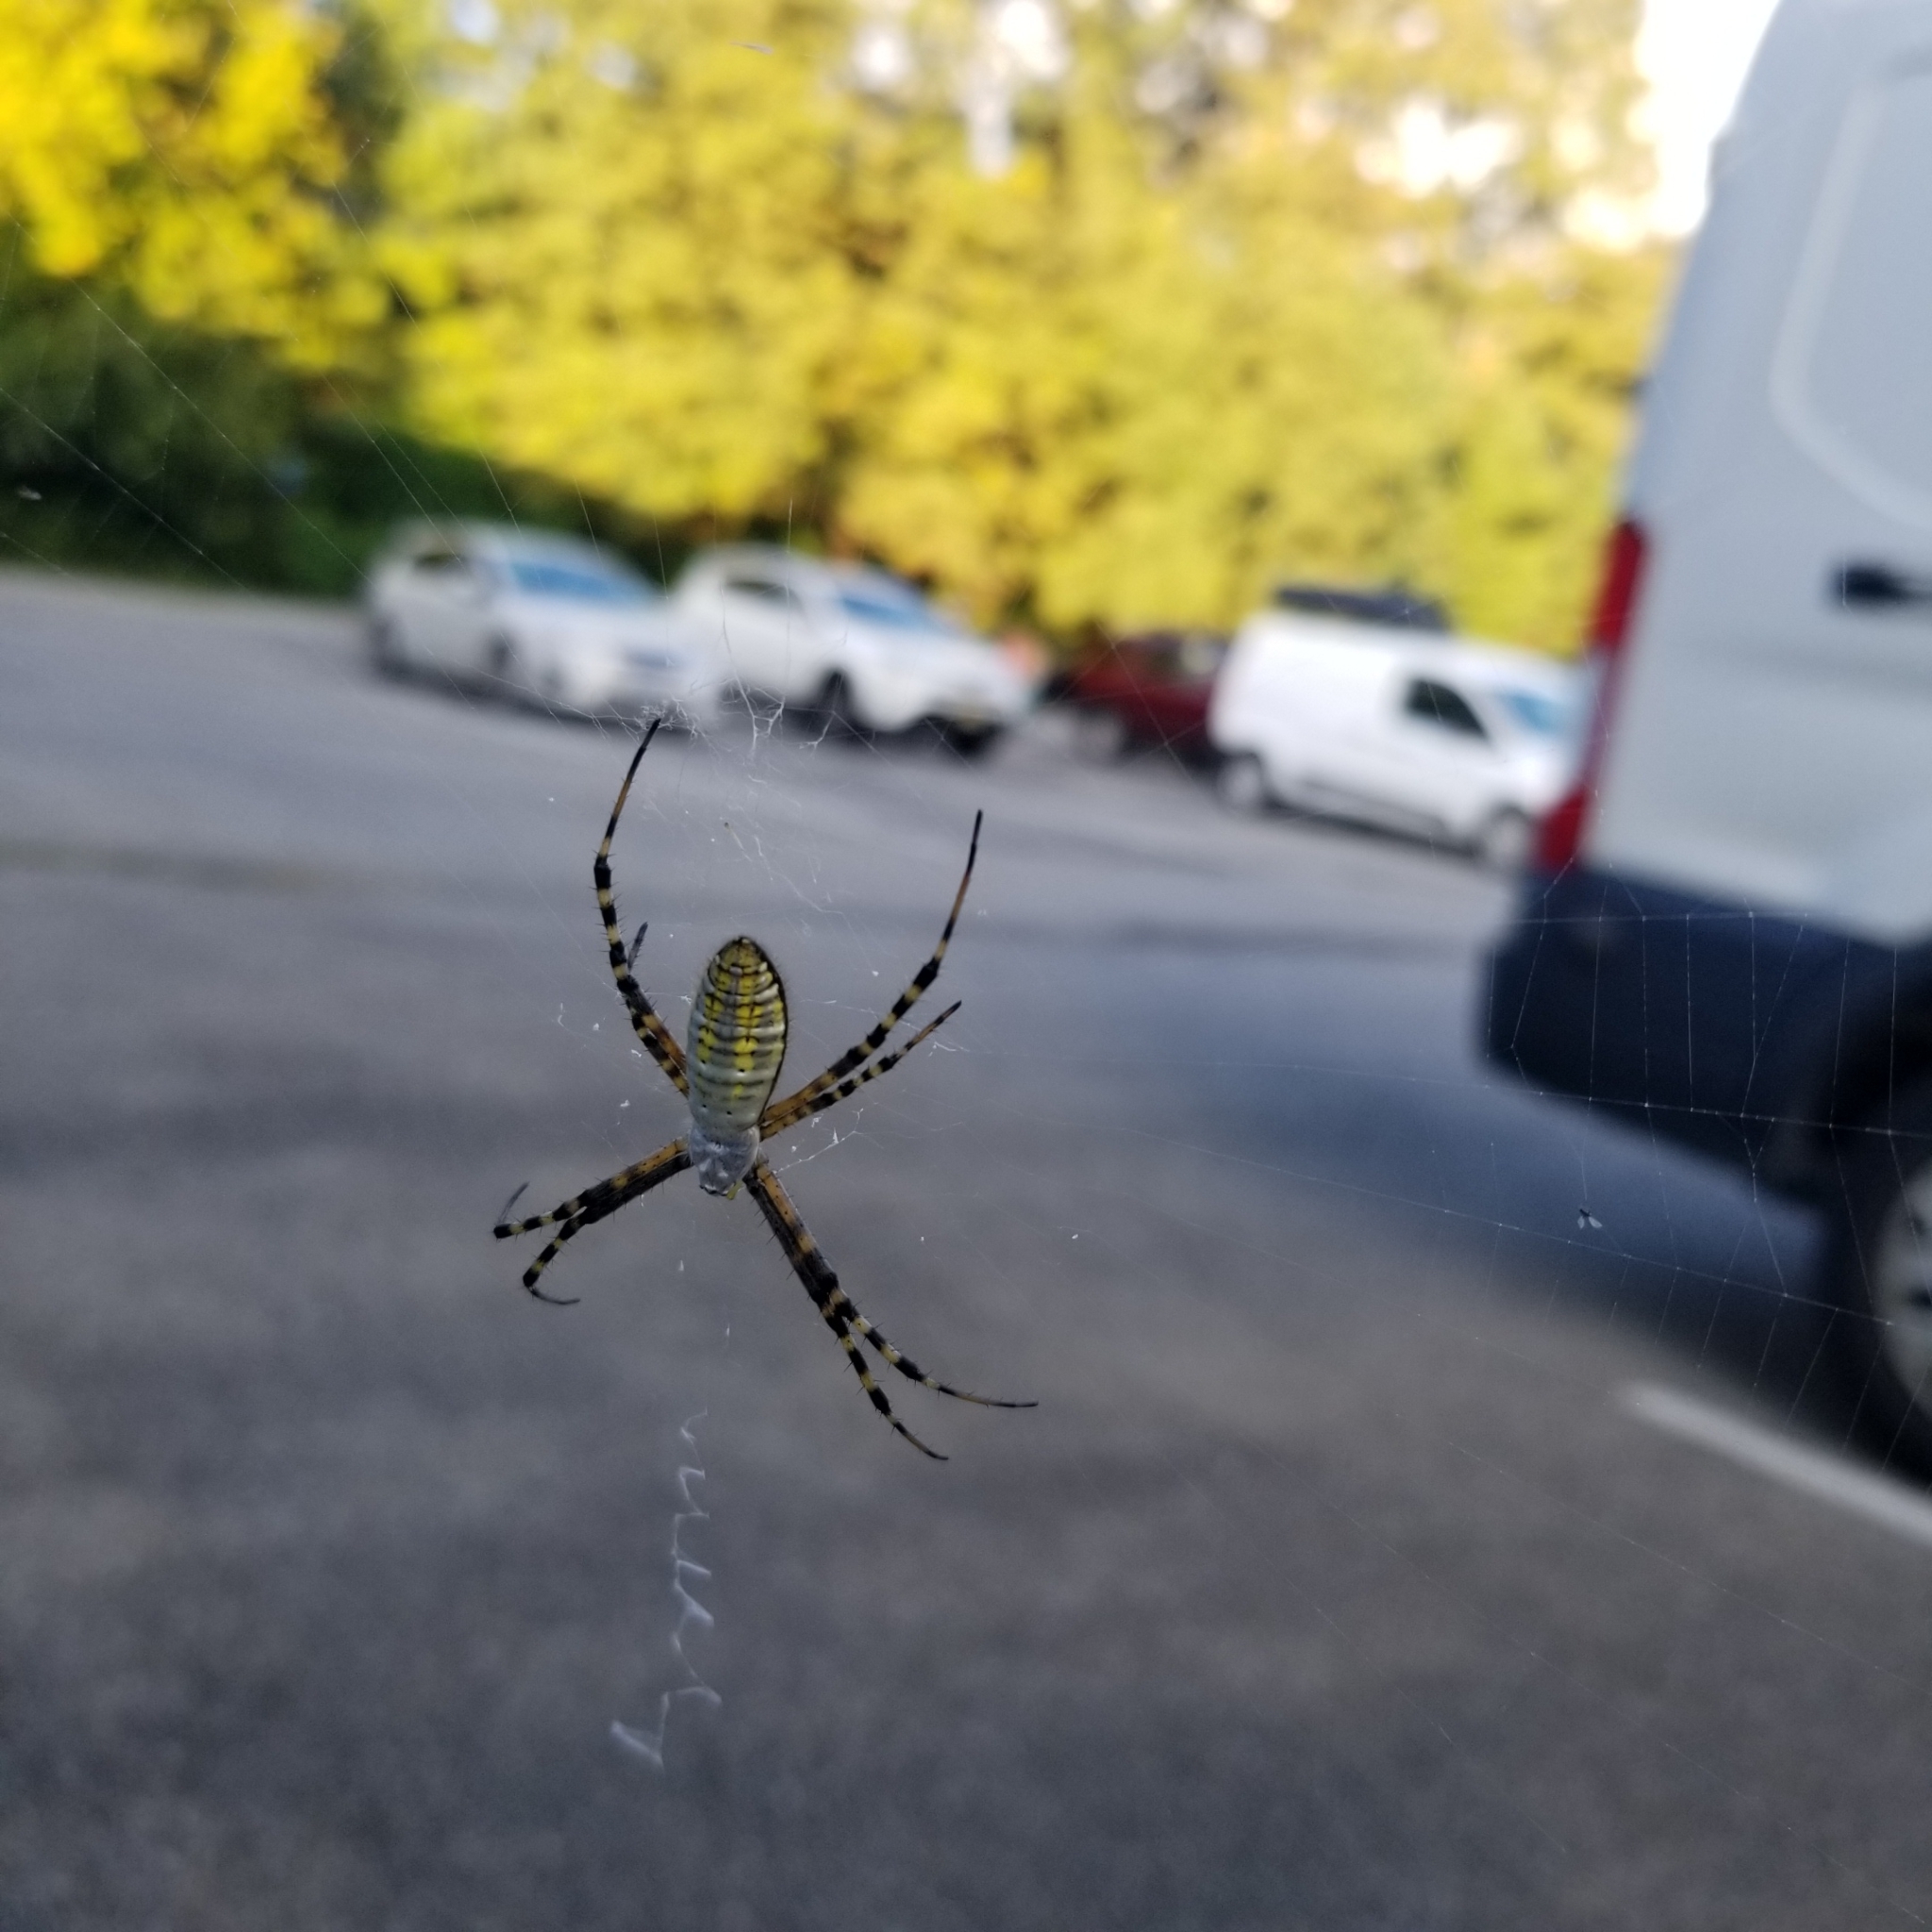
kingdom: Animalia
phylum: Arthropoda
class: Arachnida
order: Araneae
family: Araneidae
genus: Argiope
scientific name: Argiope trifasciata
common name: Banded garden spider
